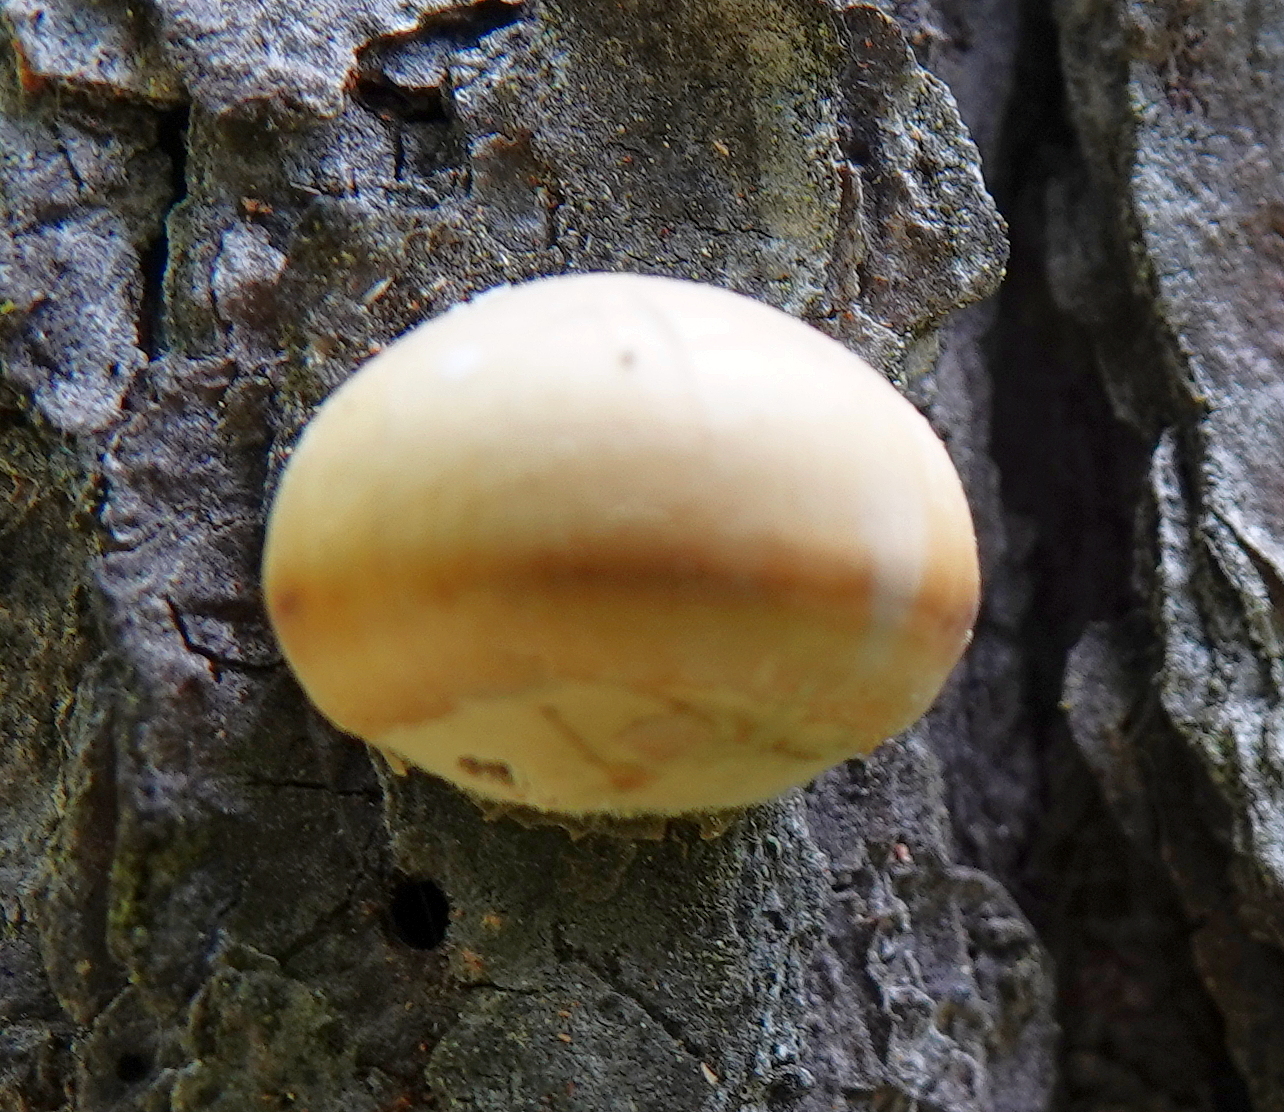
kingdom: Fungi
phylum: Basidiomycota
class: Agaricomycetes
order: Polyporales
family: Polyporaceae
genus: Cryptoporus
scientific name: Cryptoporus volvatus
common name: Veiled polypore
